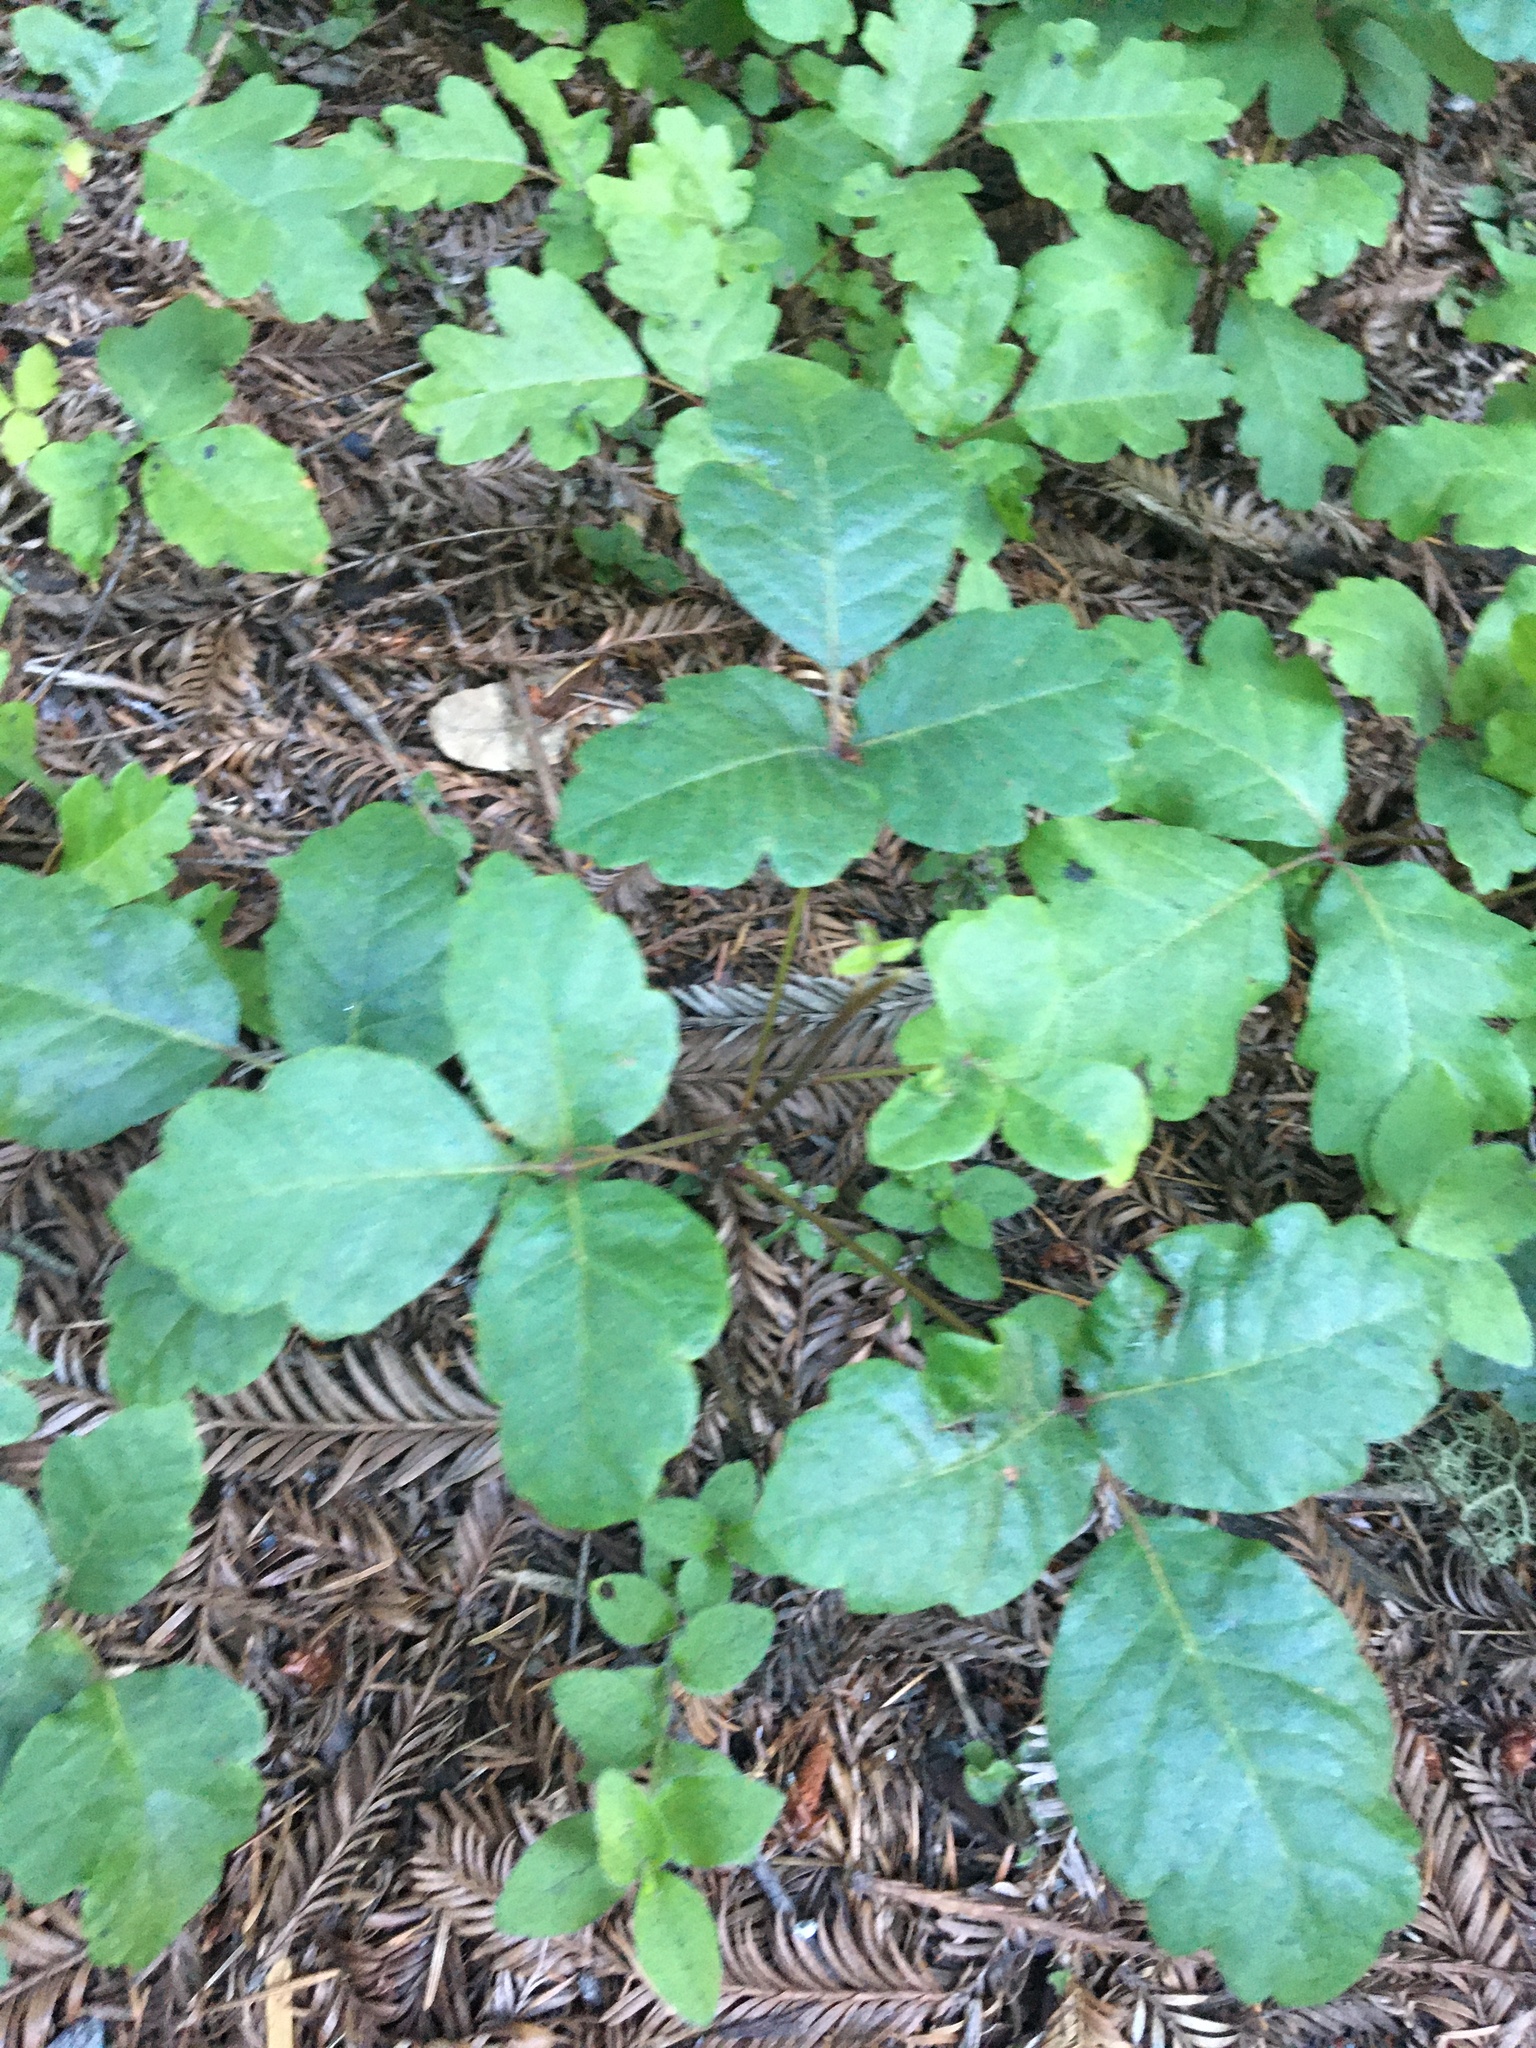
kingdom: Plantae
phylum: Tracheophyta
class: Magnoliopsida
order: Sapindales
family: Anacardiaceae
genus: Toxicodendron
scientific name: Toxicodendron diversilobum
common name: Pacific poison-oak
